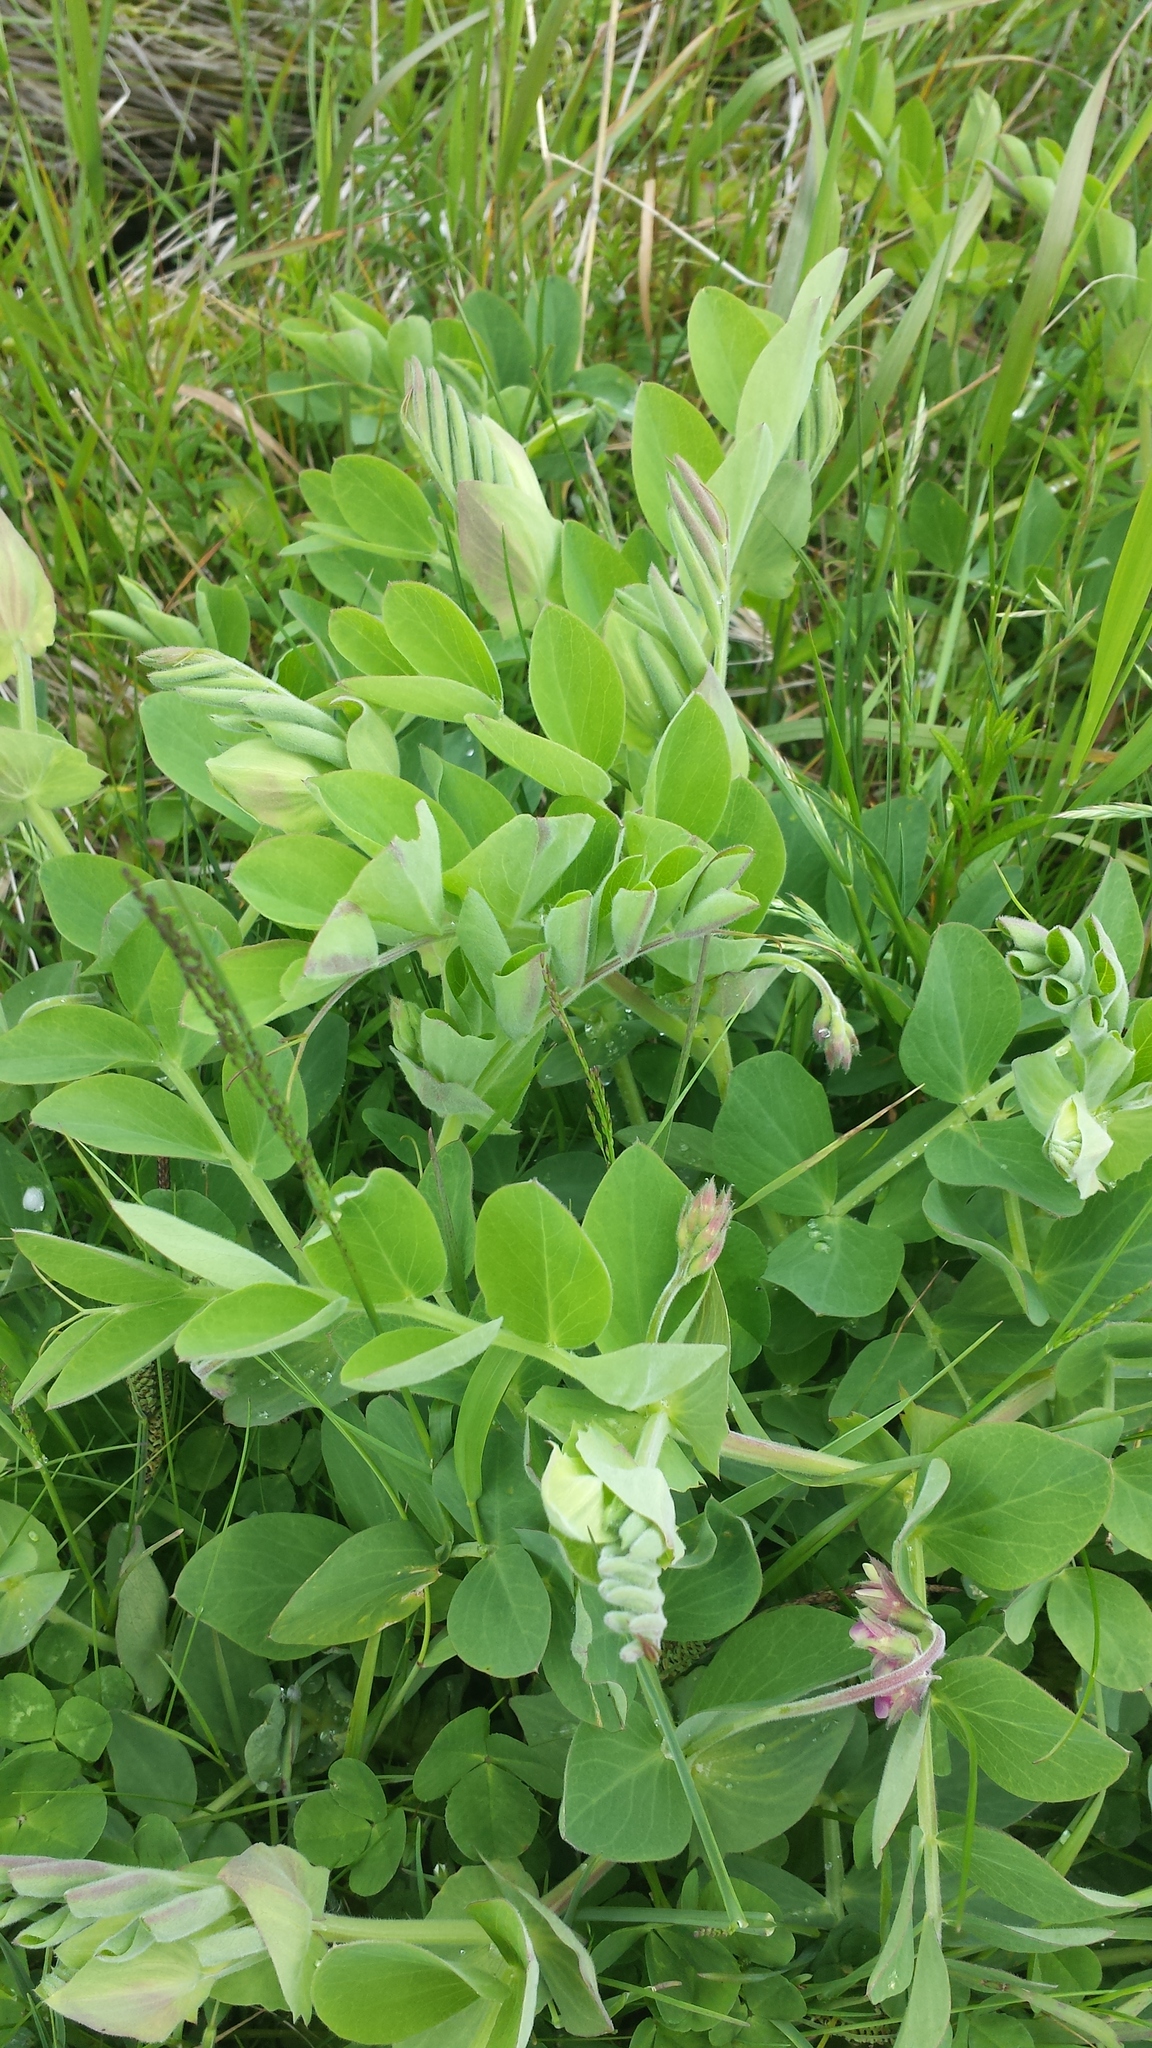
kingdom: Plantae
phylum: Tracheophyta
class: Magnoliopsida
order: Fabales
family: Fabaceae
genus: Lathyrus
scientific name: Lathyrus japonicus
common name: Sea pea
